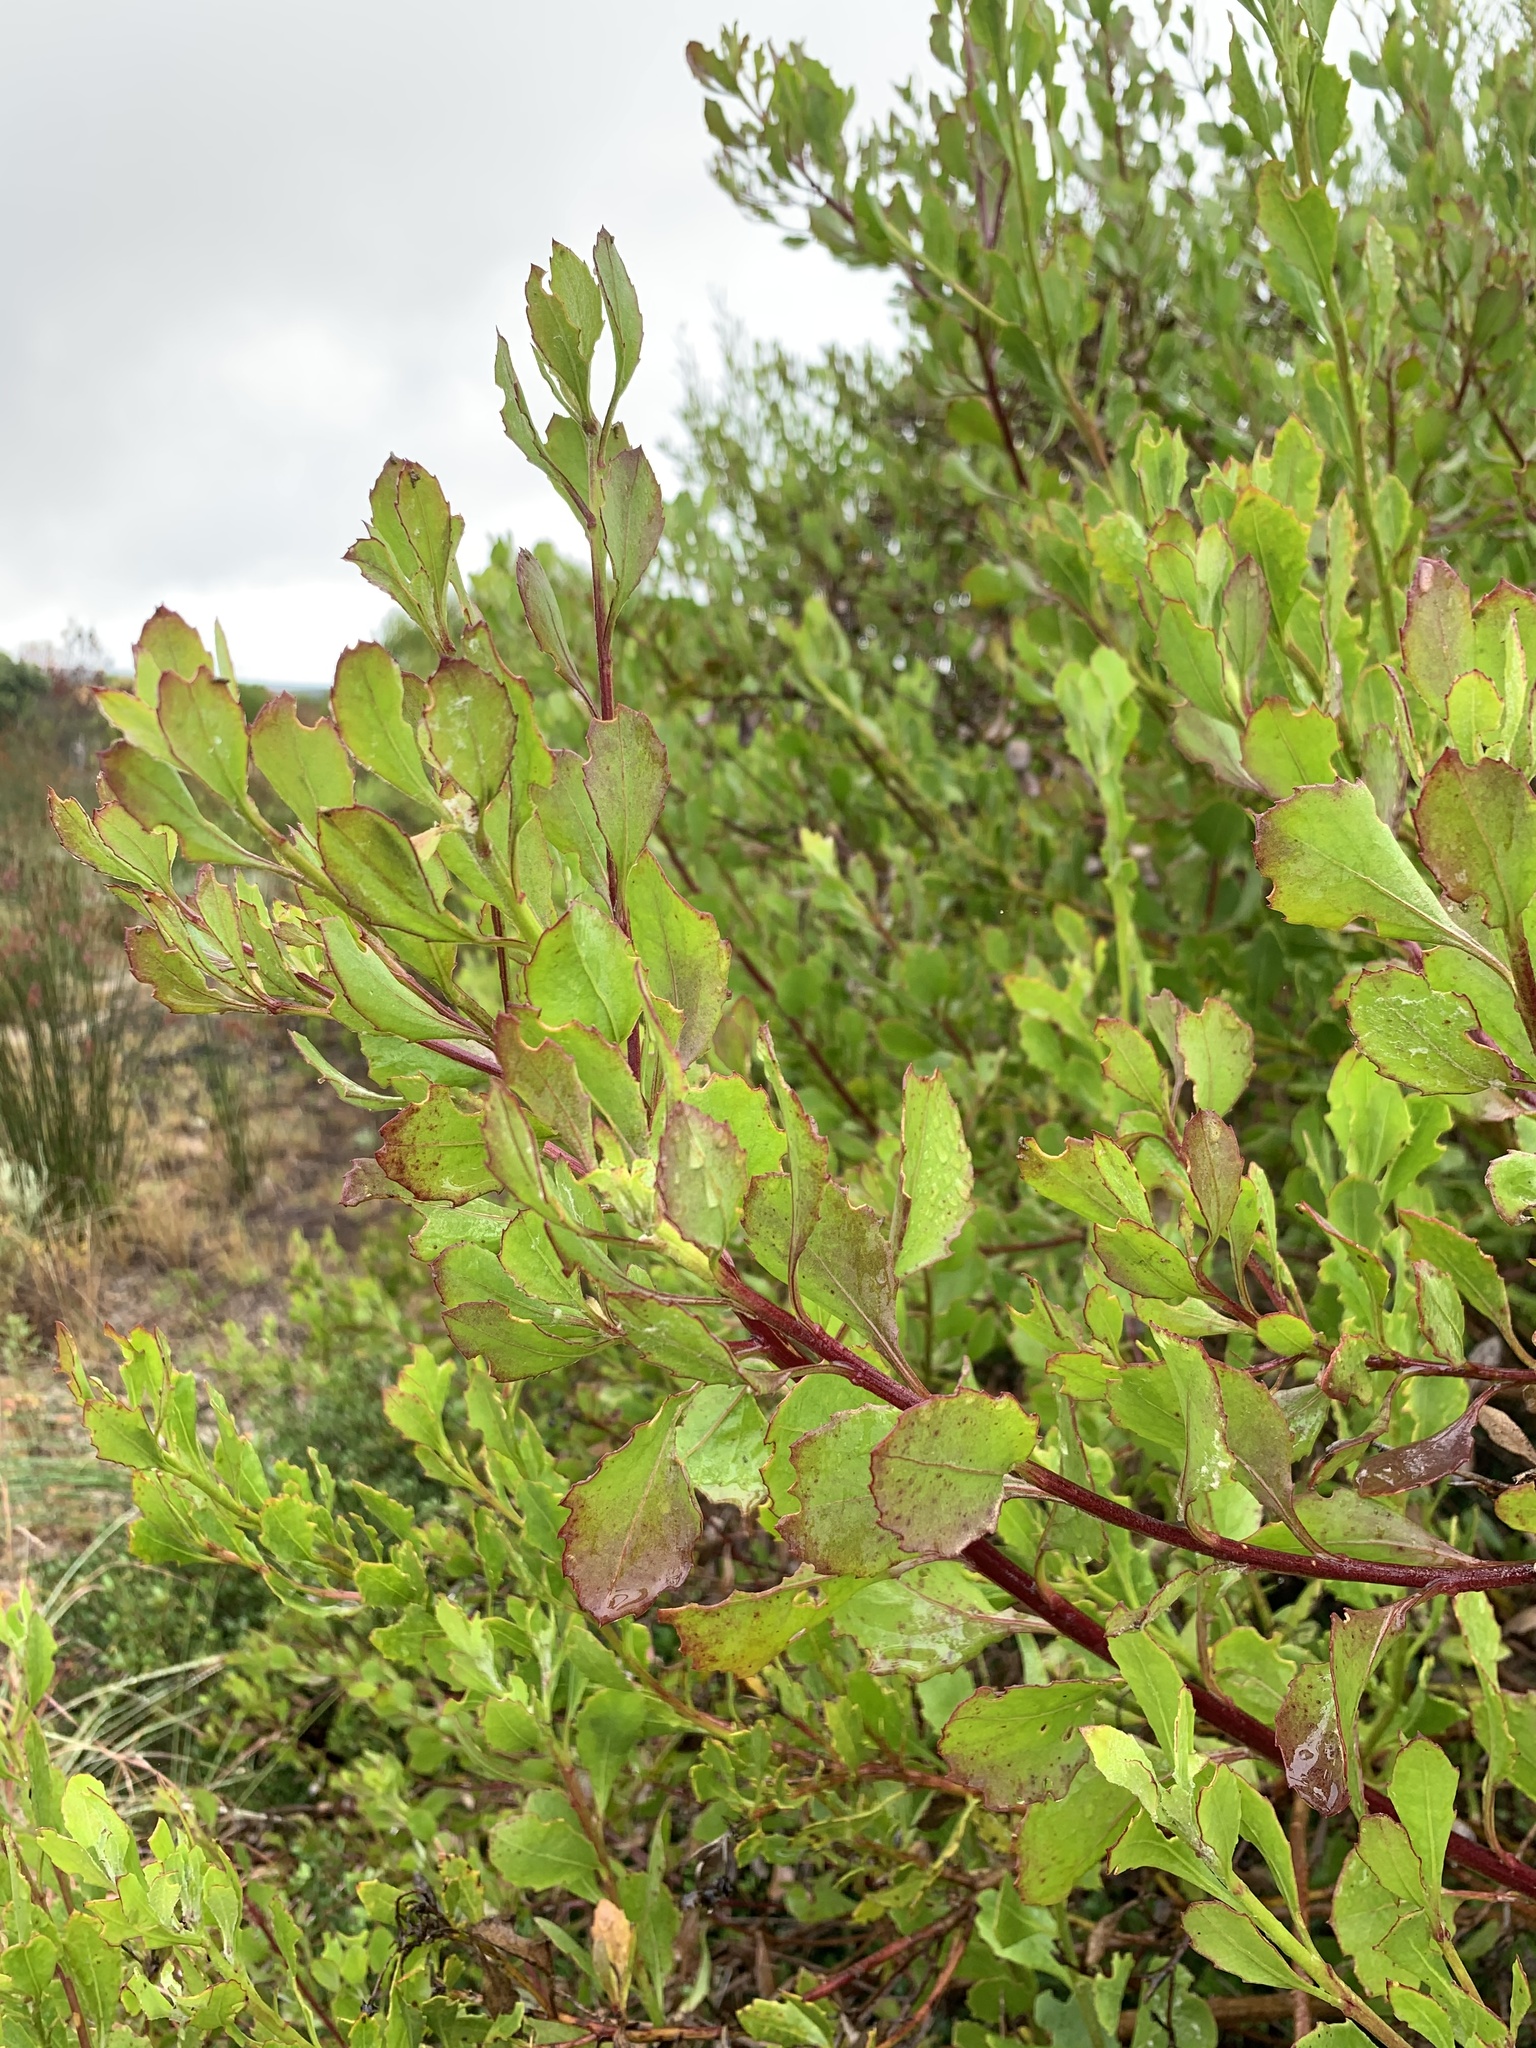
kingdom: Plantae
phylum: Tracheophyta
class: Magnoliopsida
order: Asterales
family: Asteraceae
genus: Osteospermum
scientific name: Osteospermum moniliferum
